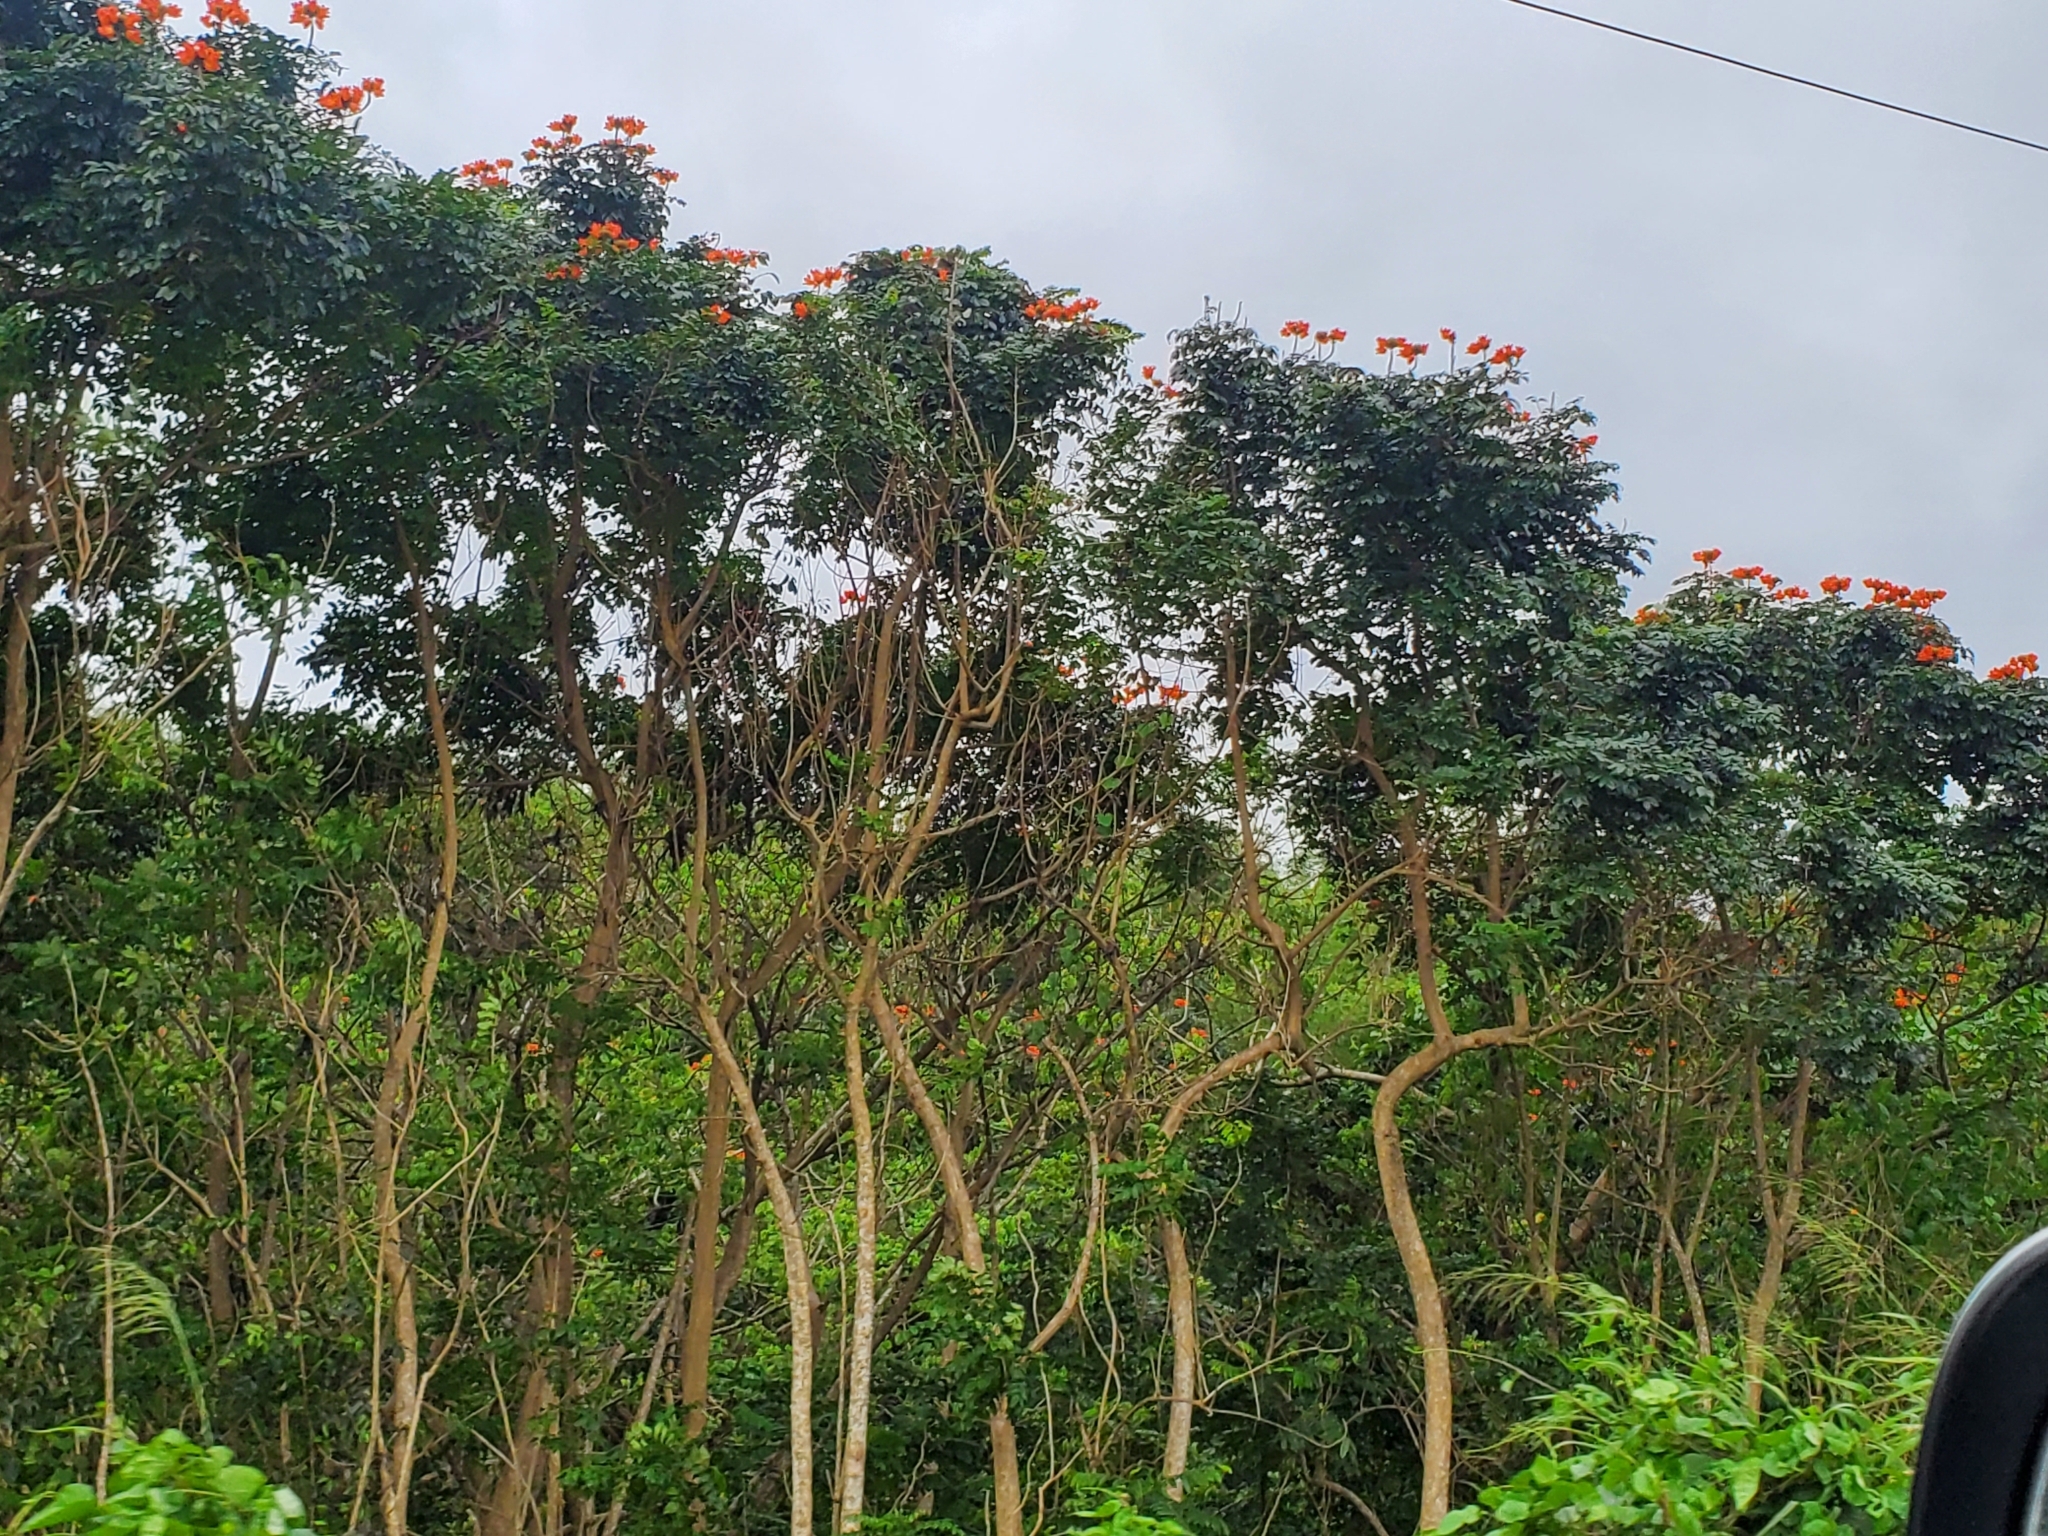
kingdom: Plantae
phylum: Tracheophyta
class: Magnoliopsida
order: Lamiales
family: Bignoniaceae
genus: Spathodea
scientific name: Spathodea campanulata
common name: African tuliptree
